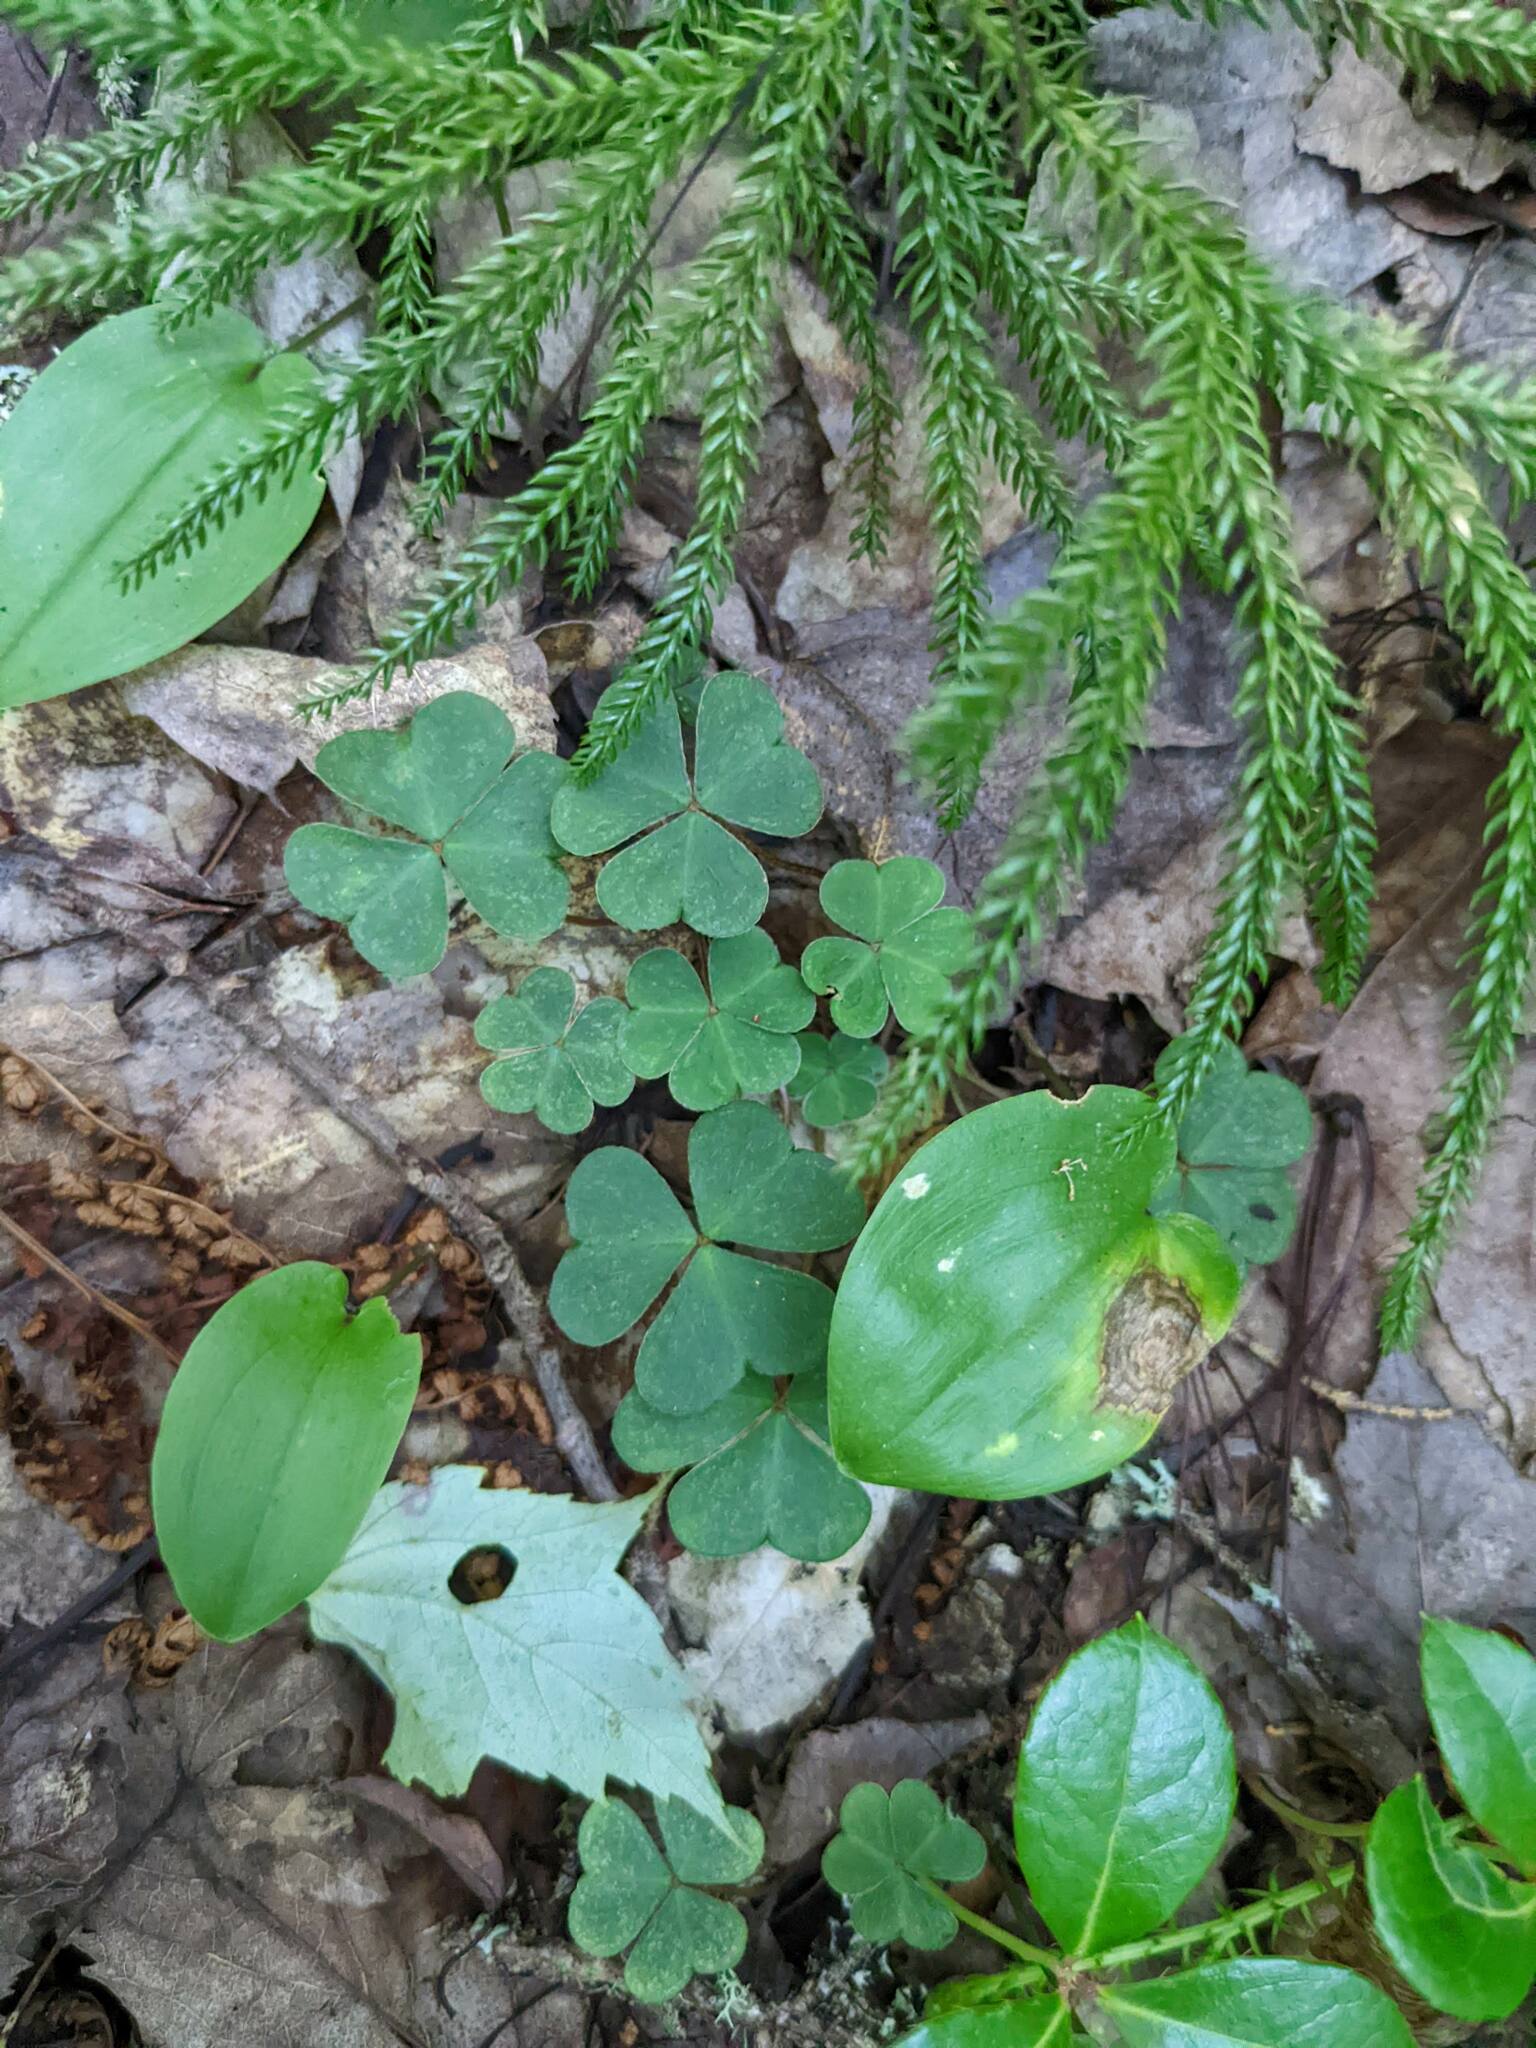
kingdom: Plantae
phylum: Tracheophyta
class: Magnoliopsida
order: Oxalidales
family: Oxalidaceae
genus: Oxalis
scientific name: Oxalis montana
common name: American wood-sorrel
